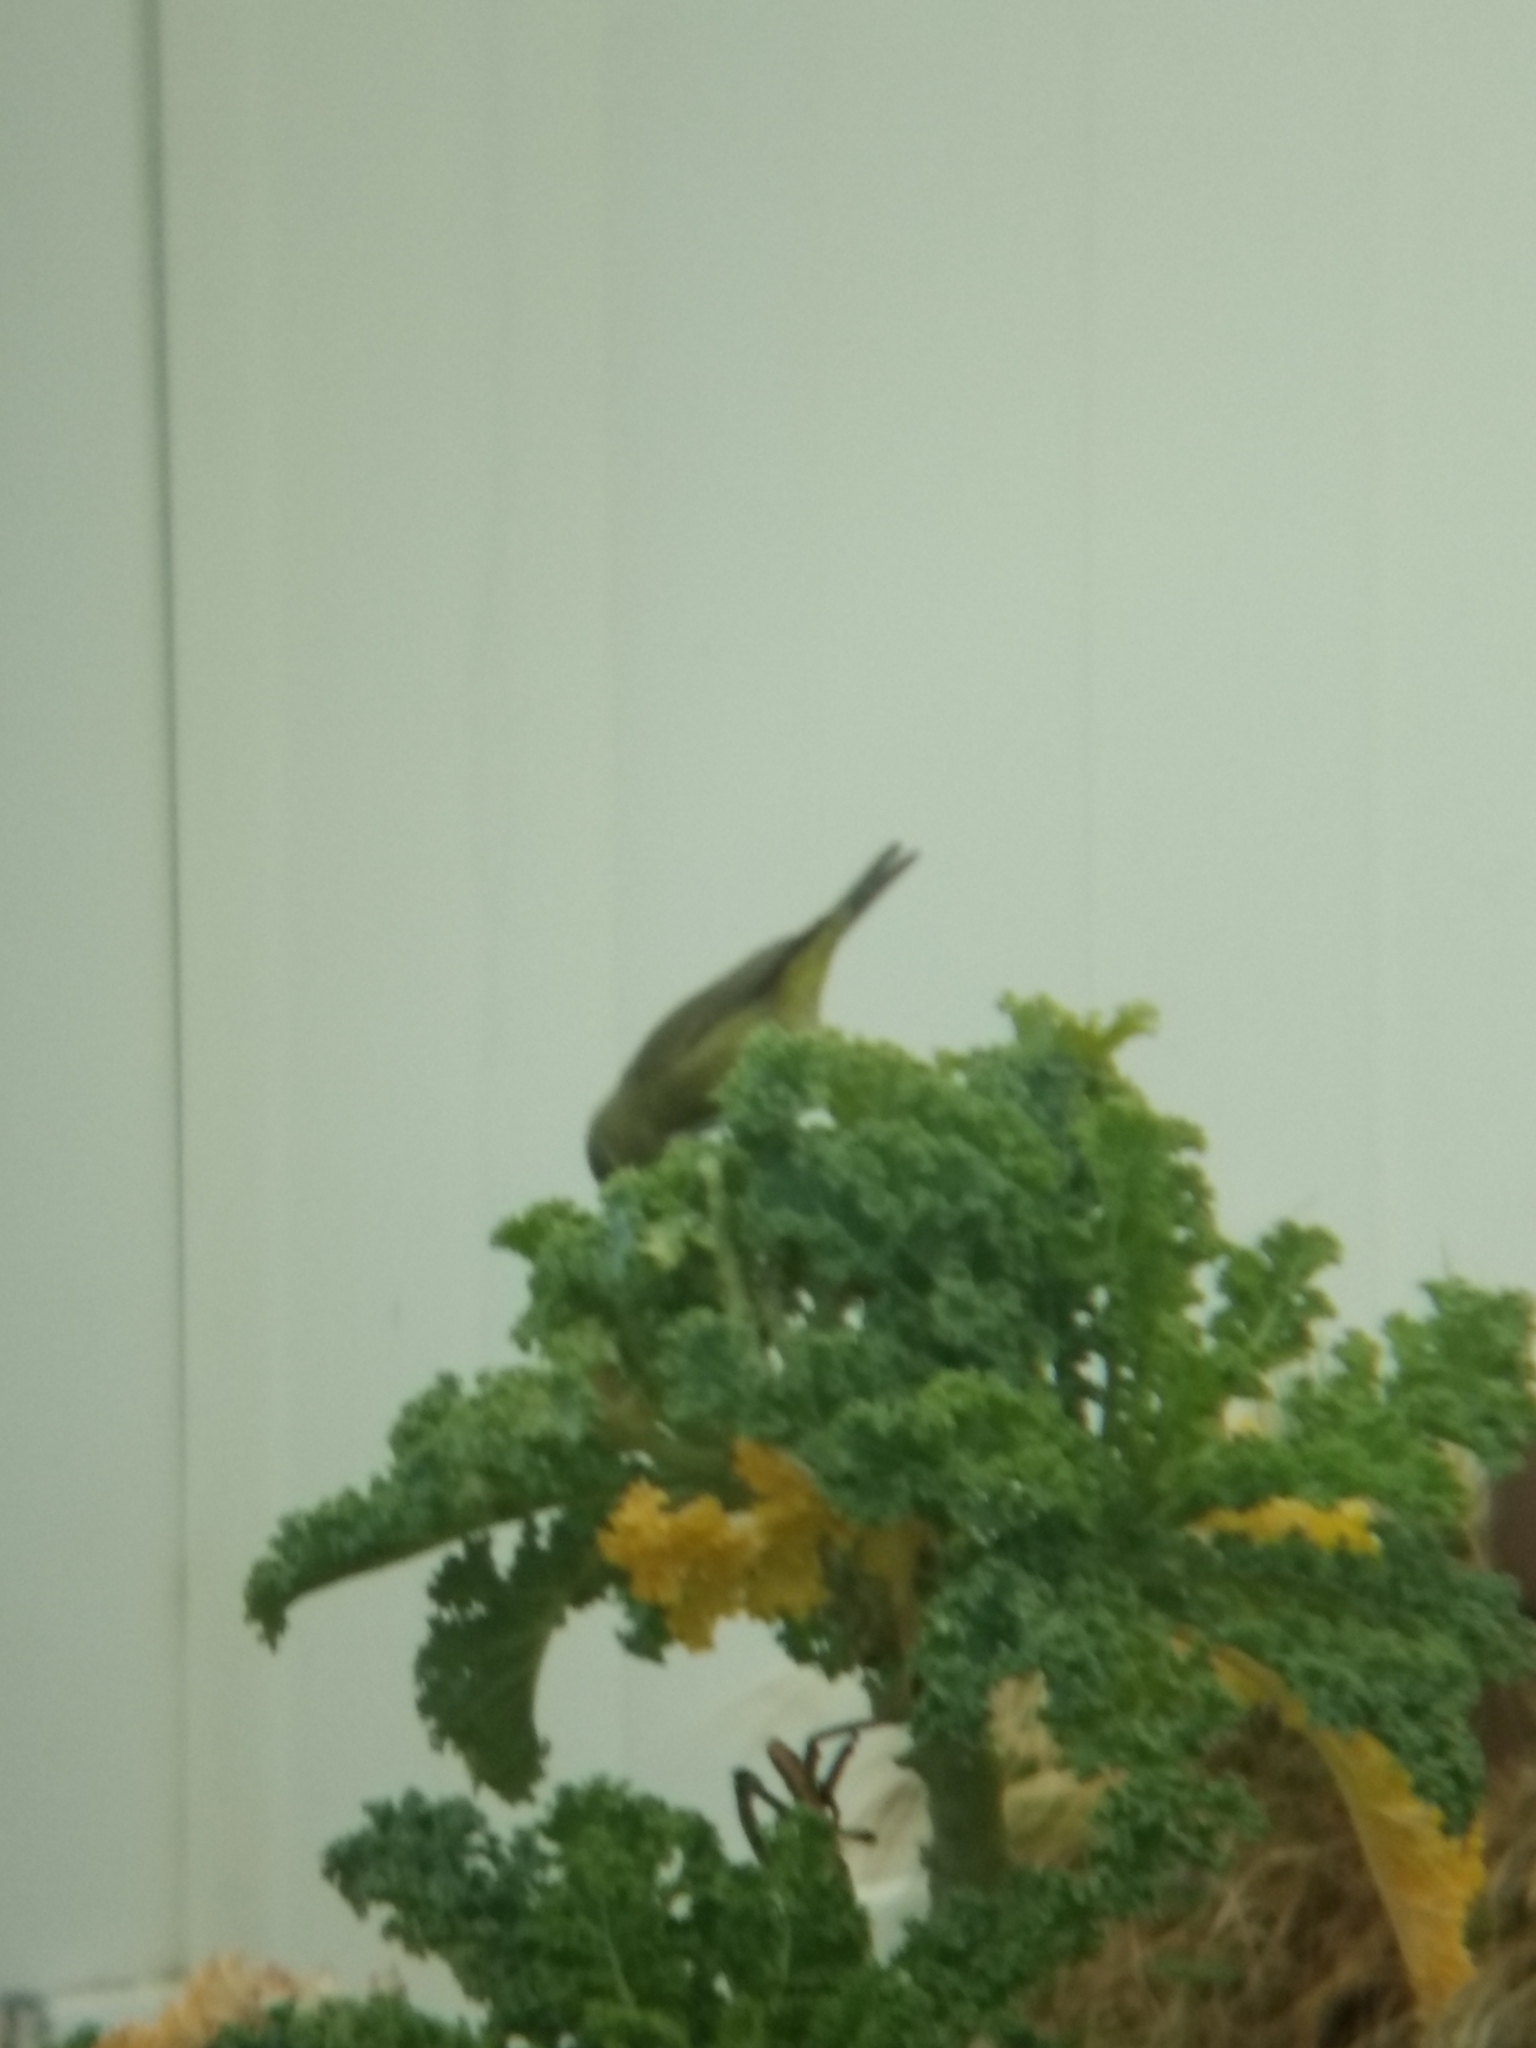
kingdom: Animalia
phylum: Chordata
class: Aves
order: Passeriformes
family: Parulidae
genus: Leiothlypis
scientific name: Leiothlypis celata
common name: Orange-crowned warbler
